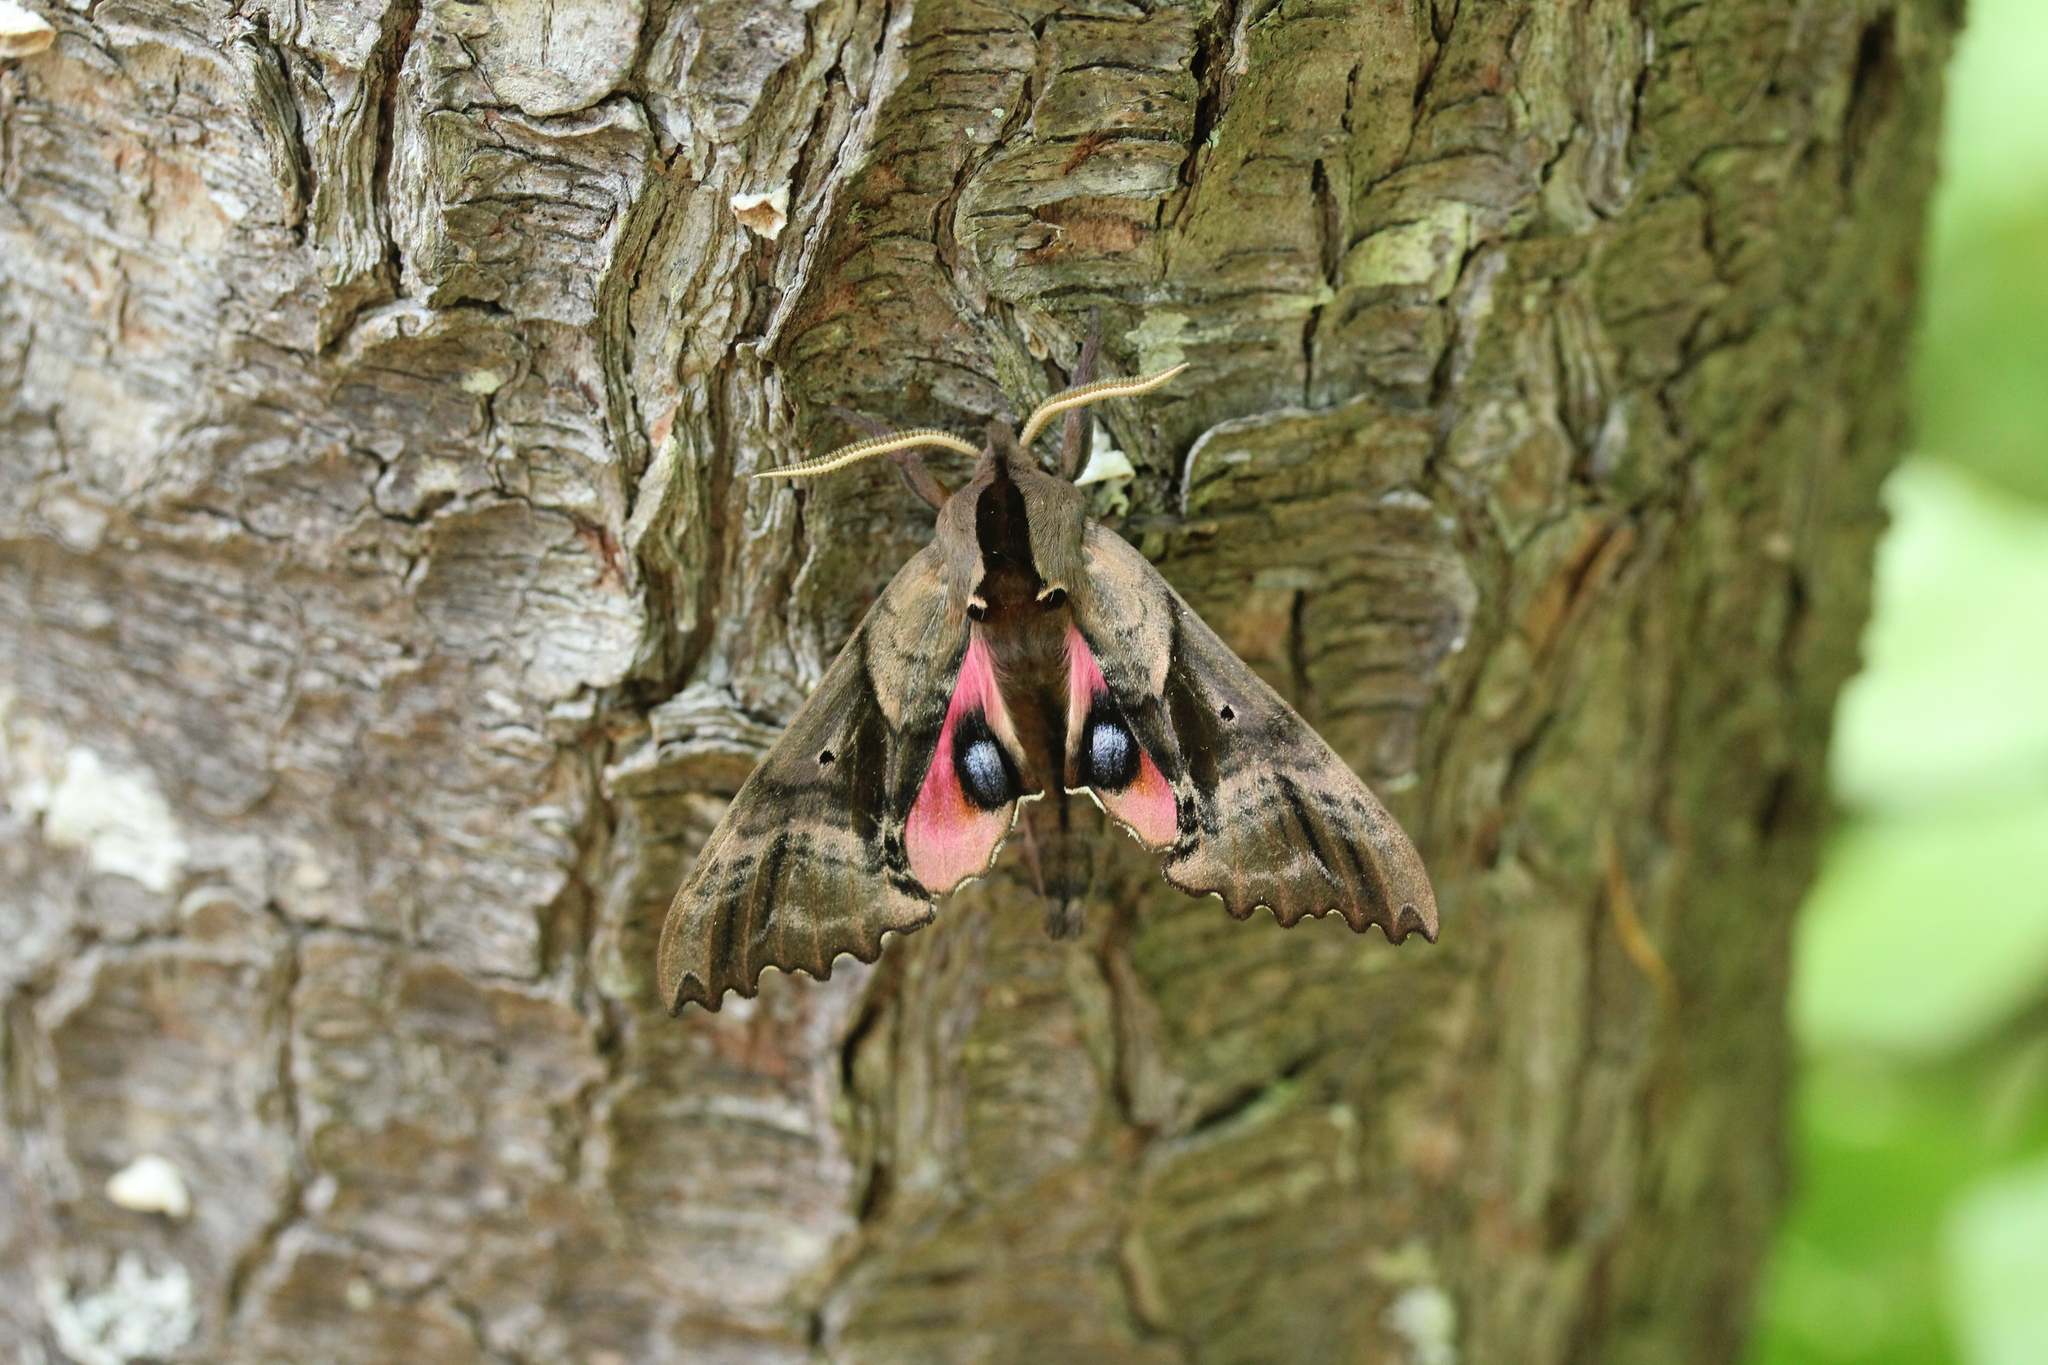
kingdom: Animalia
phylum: Arthropoda
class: Insecta
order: Lepidoptera
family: Sphingidae
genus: Paonias
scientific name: Paonias excaecata
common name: Blind-eyed sphinx
